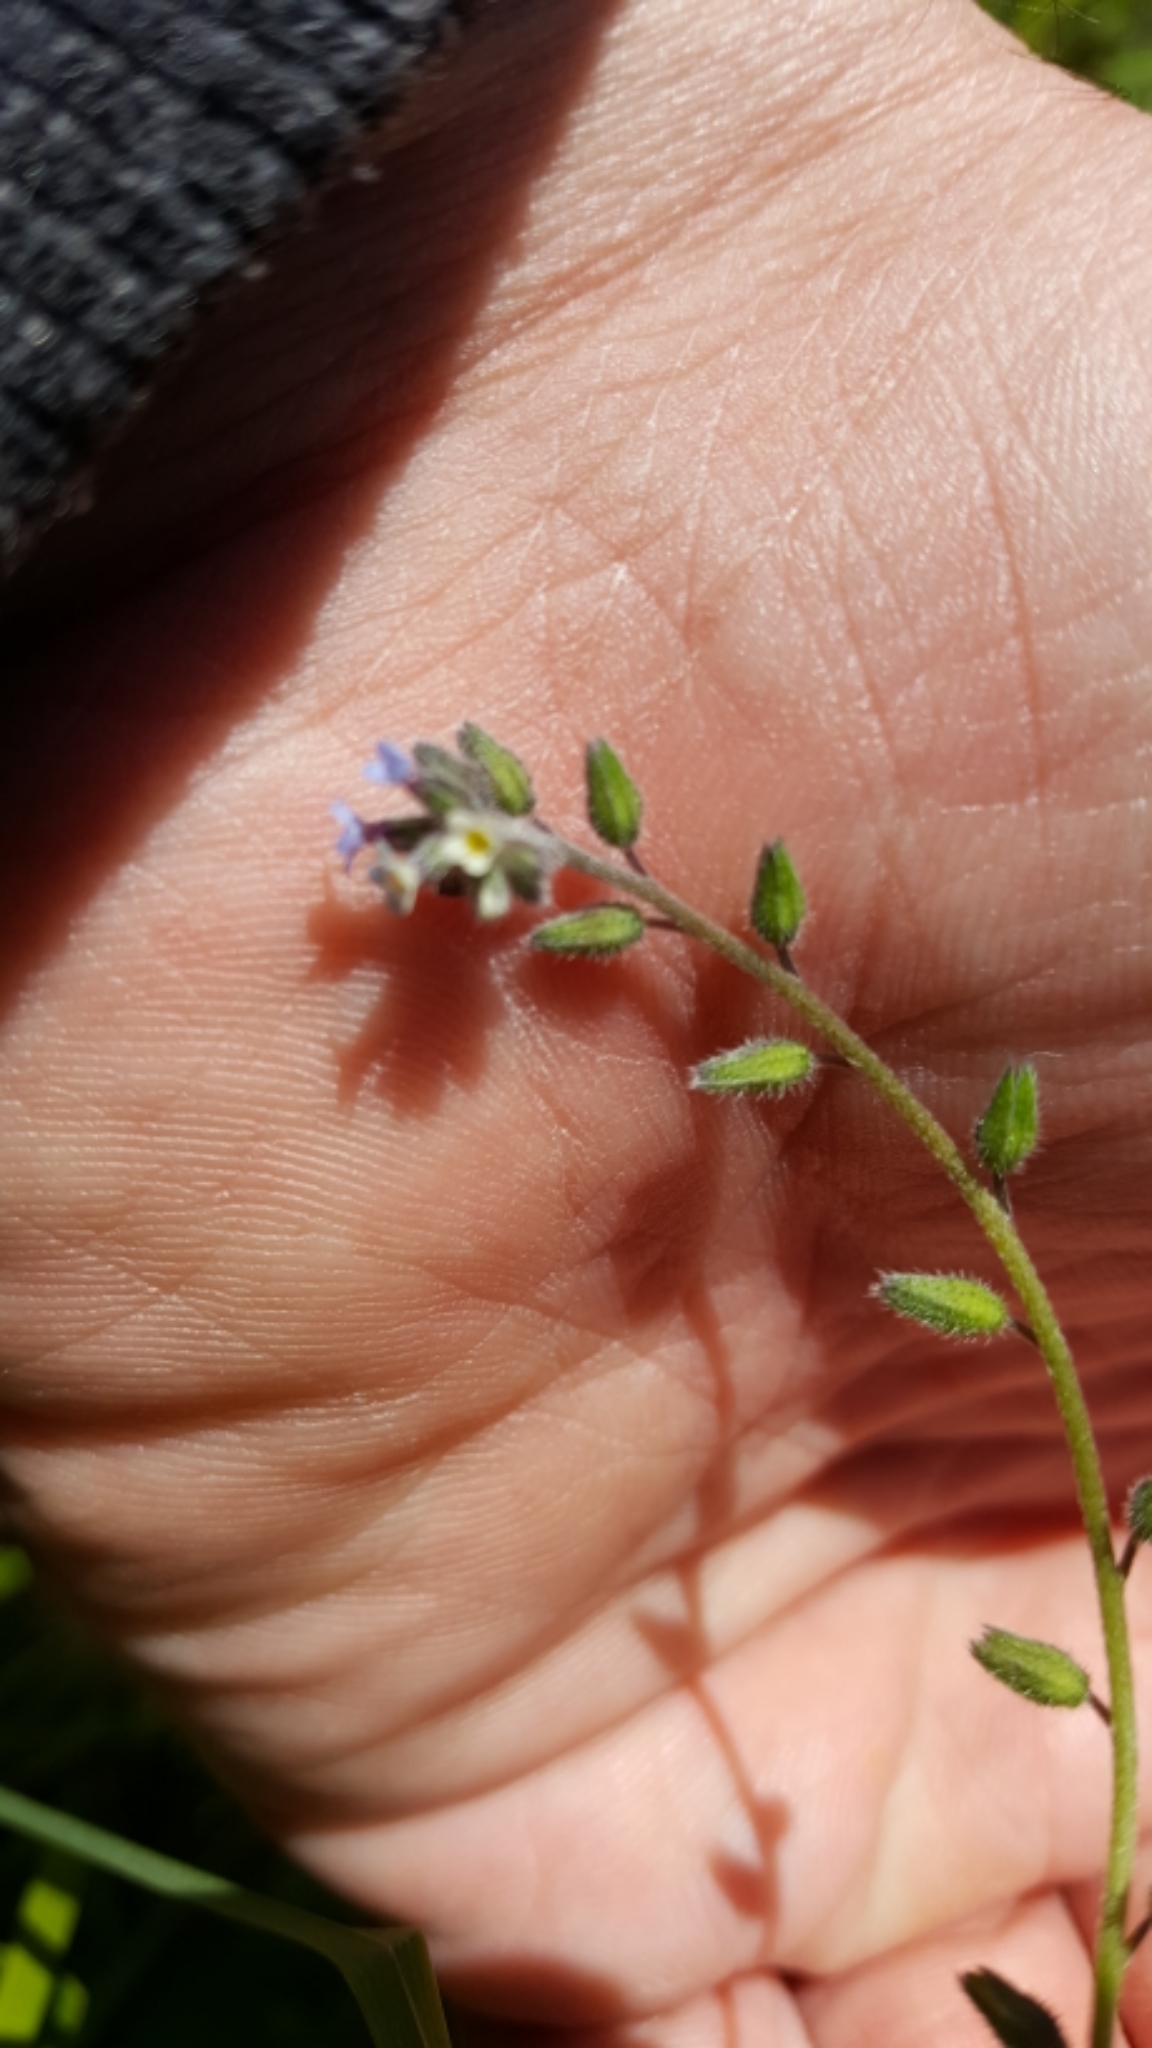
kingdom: Plantae
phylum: Tracheophyta
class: Magnoliopsida
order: Boraginales
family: Boraginaceae
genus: Myosotis
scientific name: Myosotis discolor
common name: Changing forget-me-not
